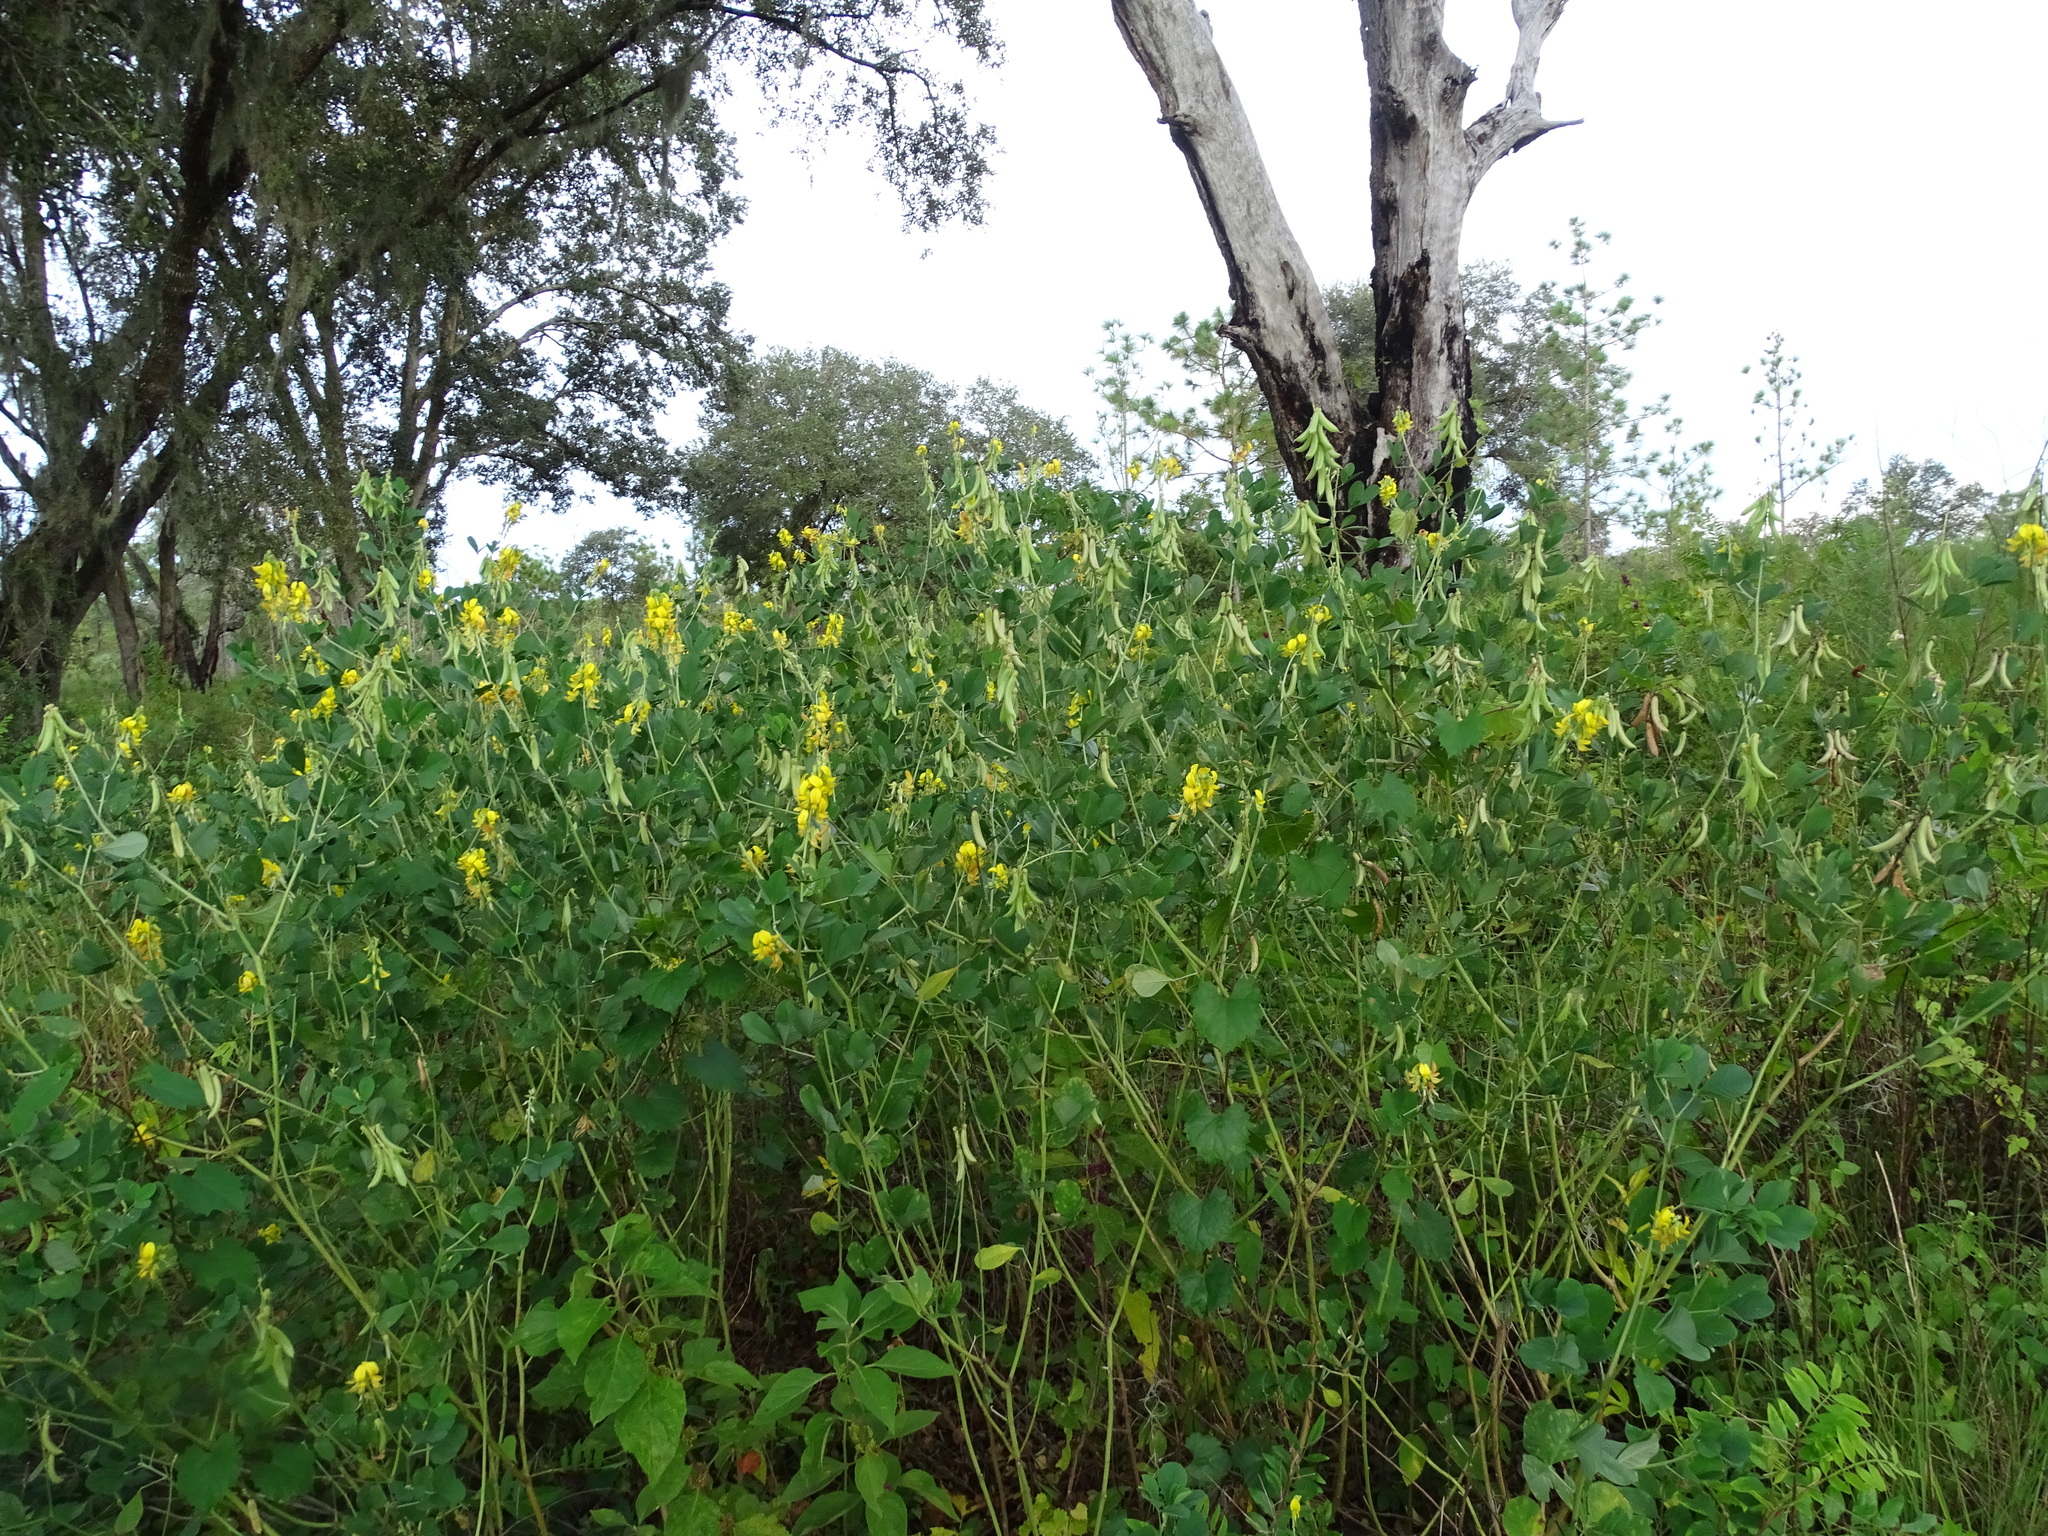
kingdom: Plantae
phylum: Tracheophyta
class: Magnoliopsida
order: Fabales
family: Fabaceae
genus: Crotalaria
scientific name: Crotalaria pallida
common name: Smooth rattlebox
